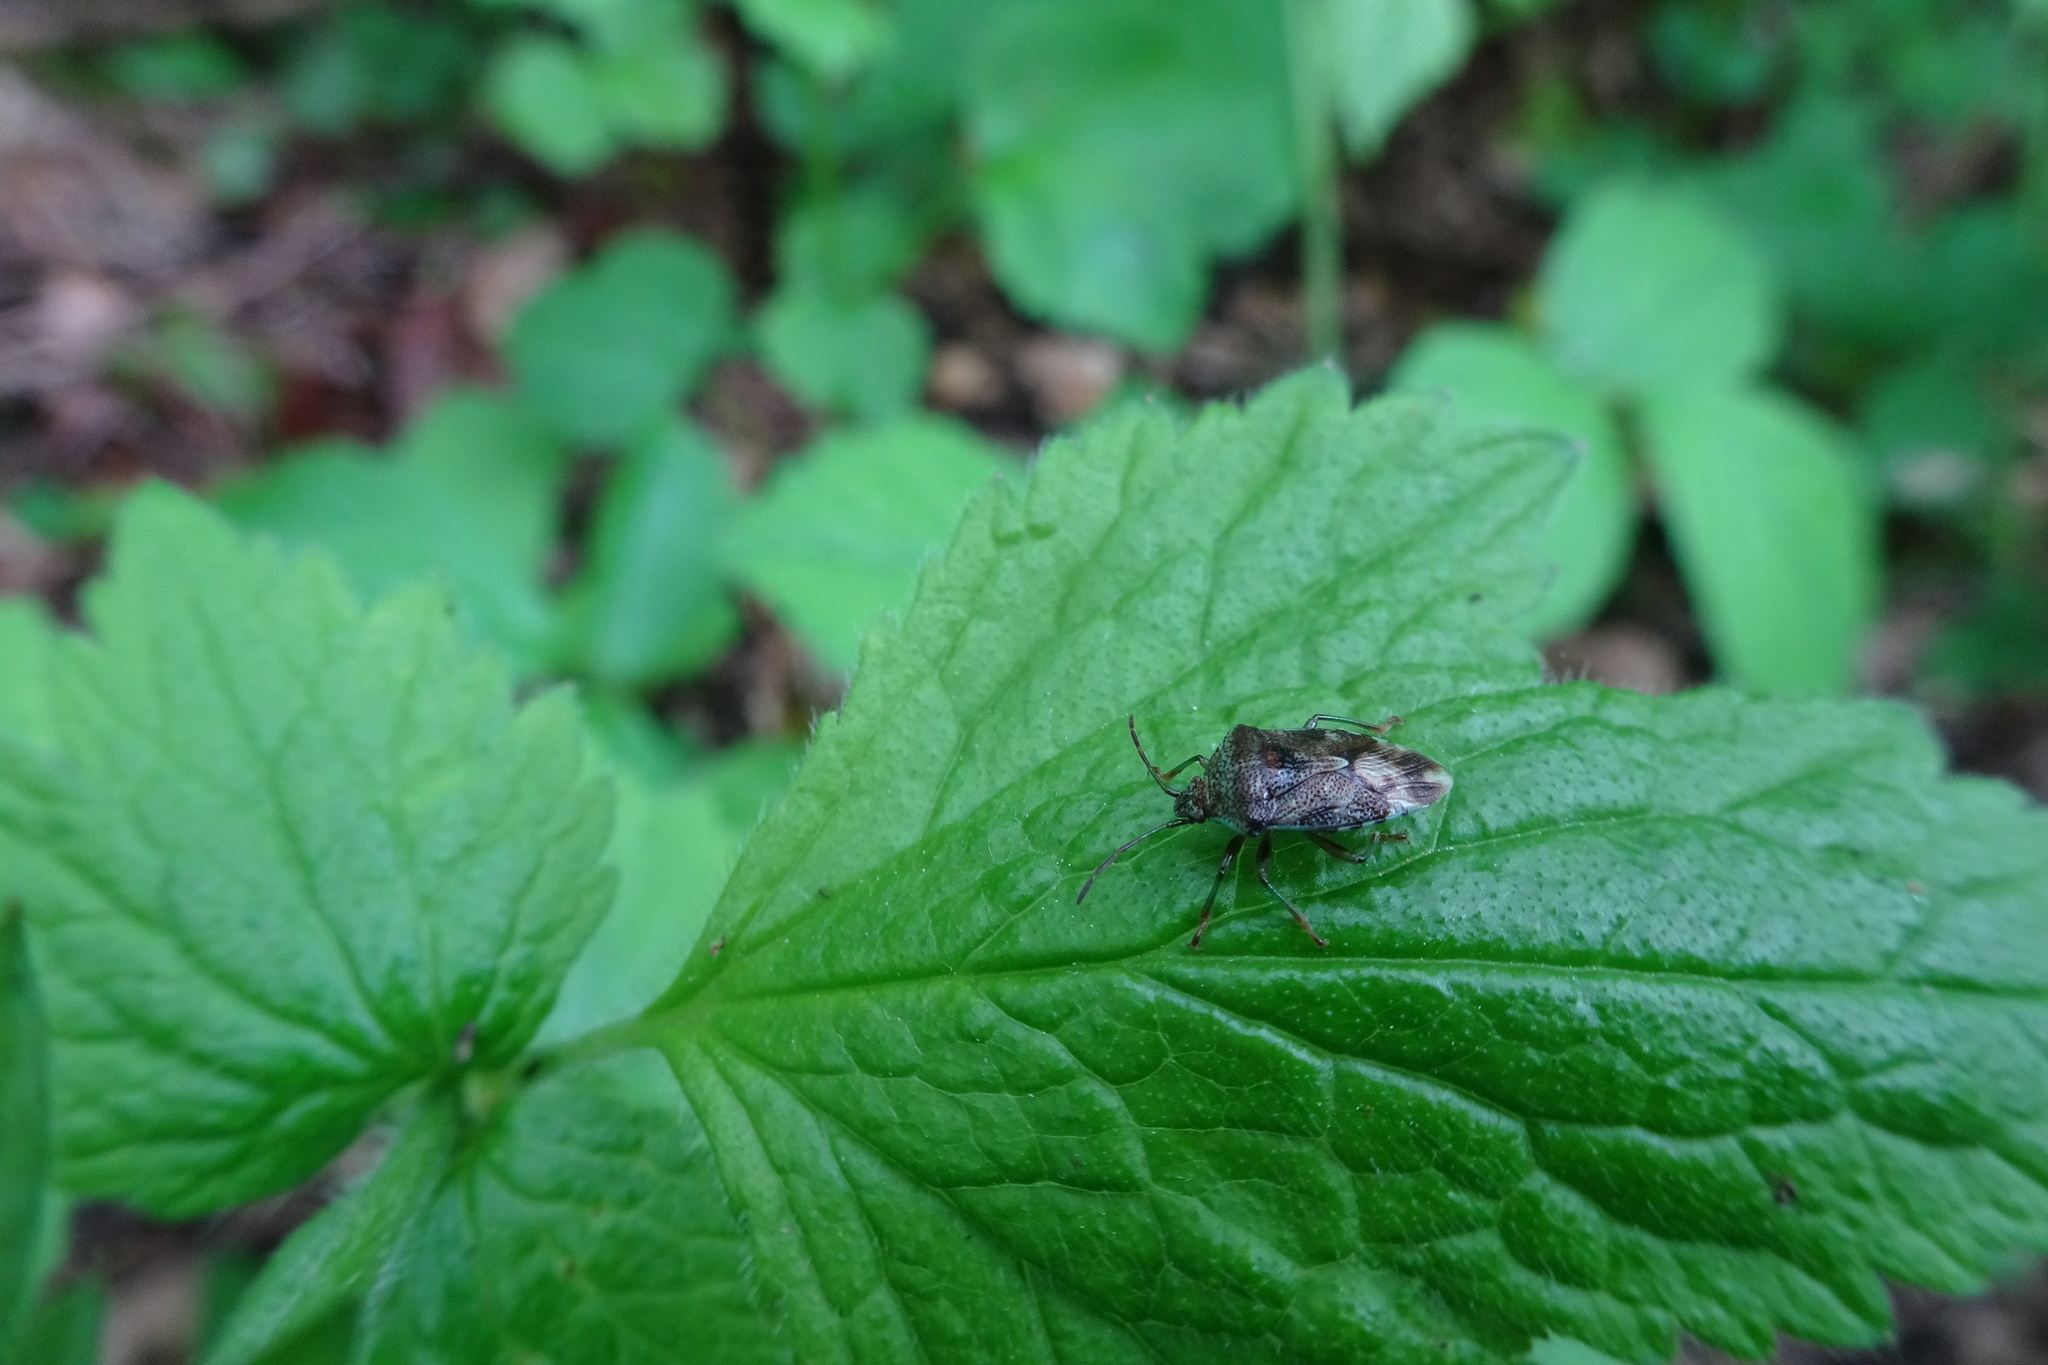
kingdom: Animalia
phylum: Arthropoda
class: Insecta
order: Hemiptera
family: Acanthosomatidae
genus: Elasmucha
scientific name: Elasmucha grisea
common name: Parent bug
